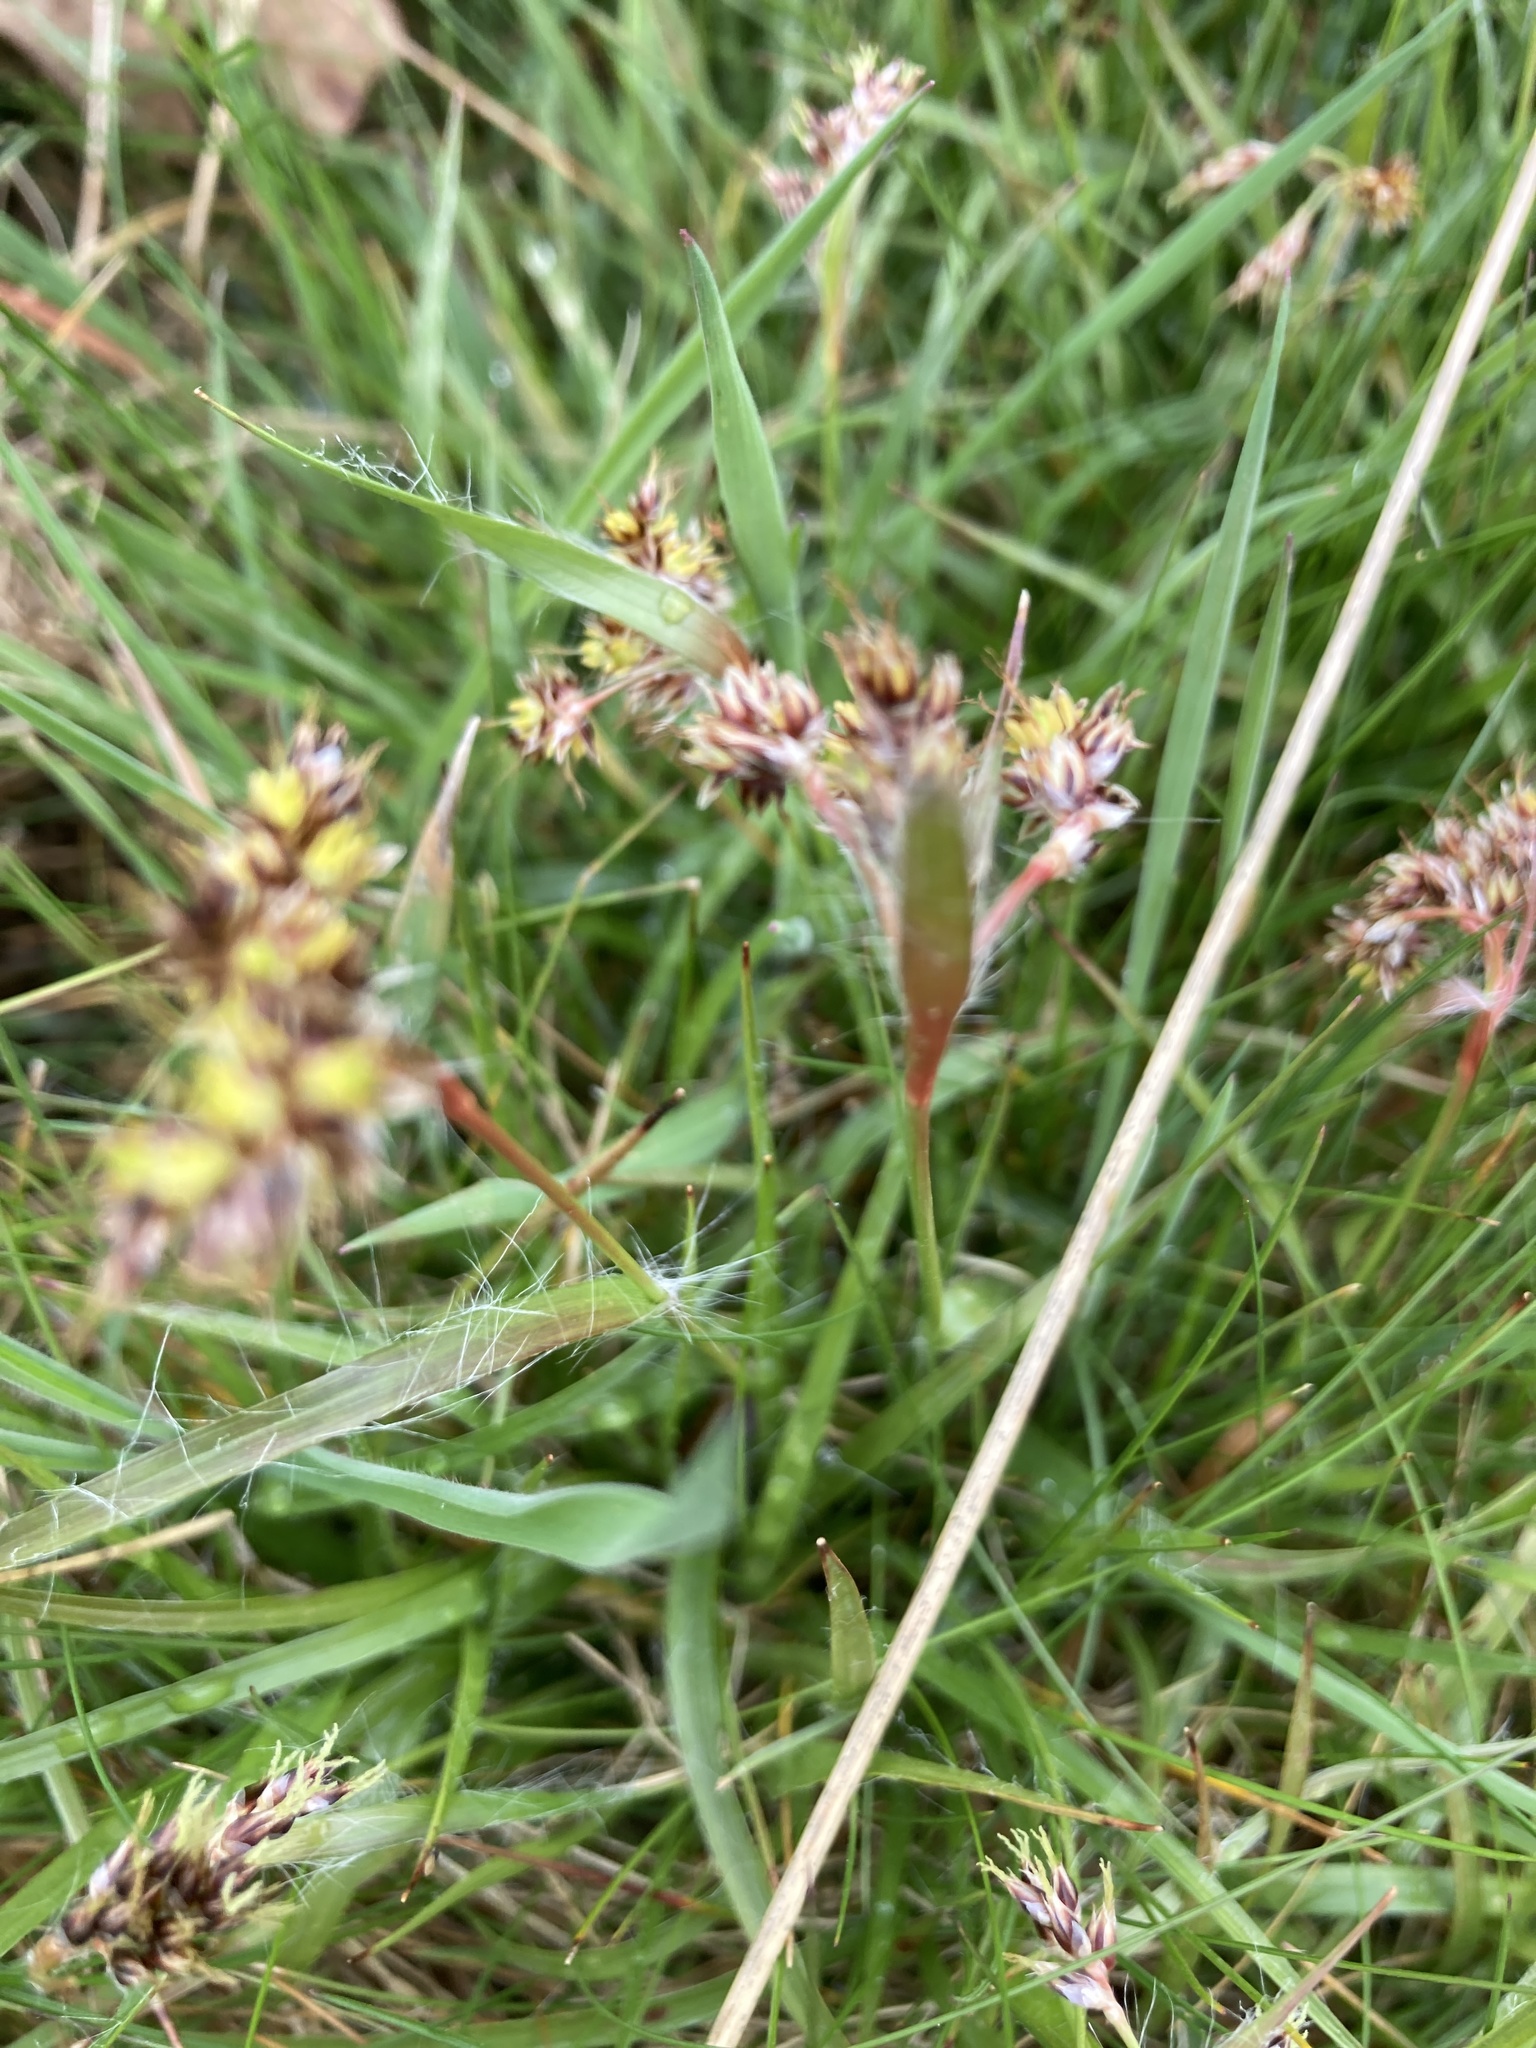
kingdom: Plantae
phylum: Tracheophyta
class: Liliopsida
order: Poales
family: Juncaceae
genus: Luzula
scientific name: Luzula campestris
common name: Field wood-rush
